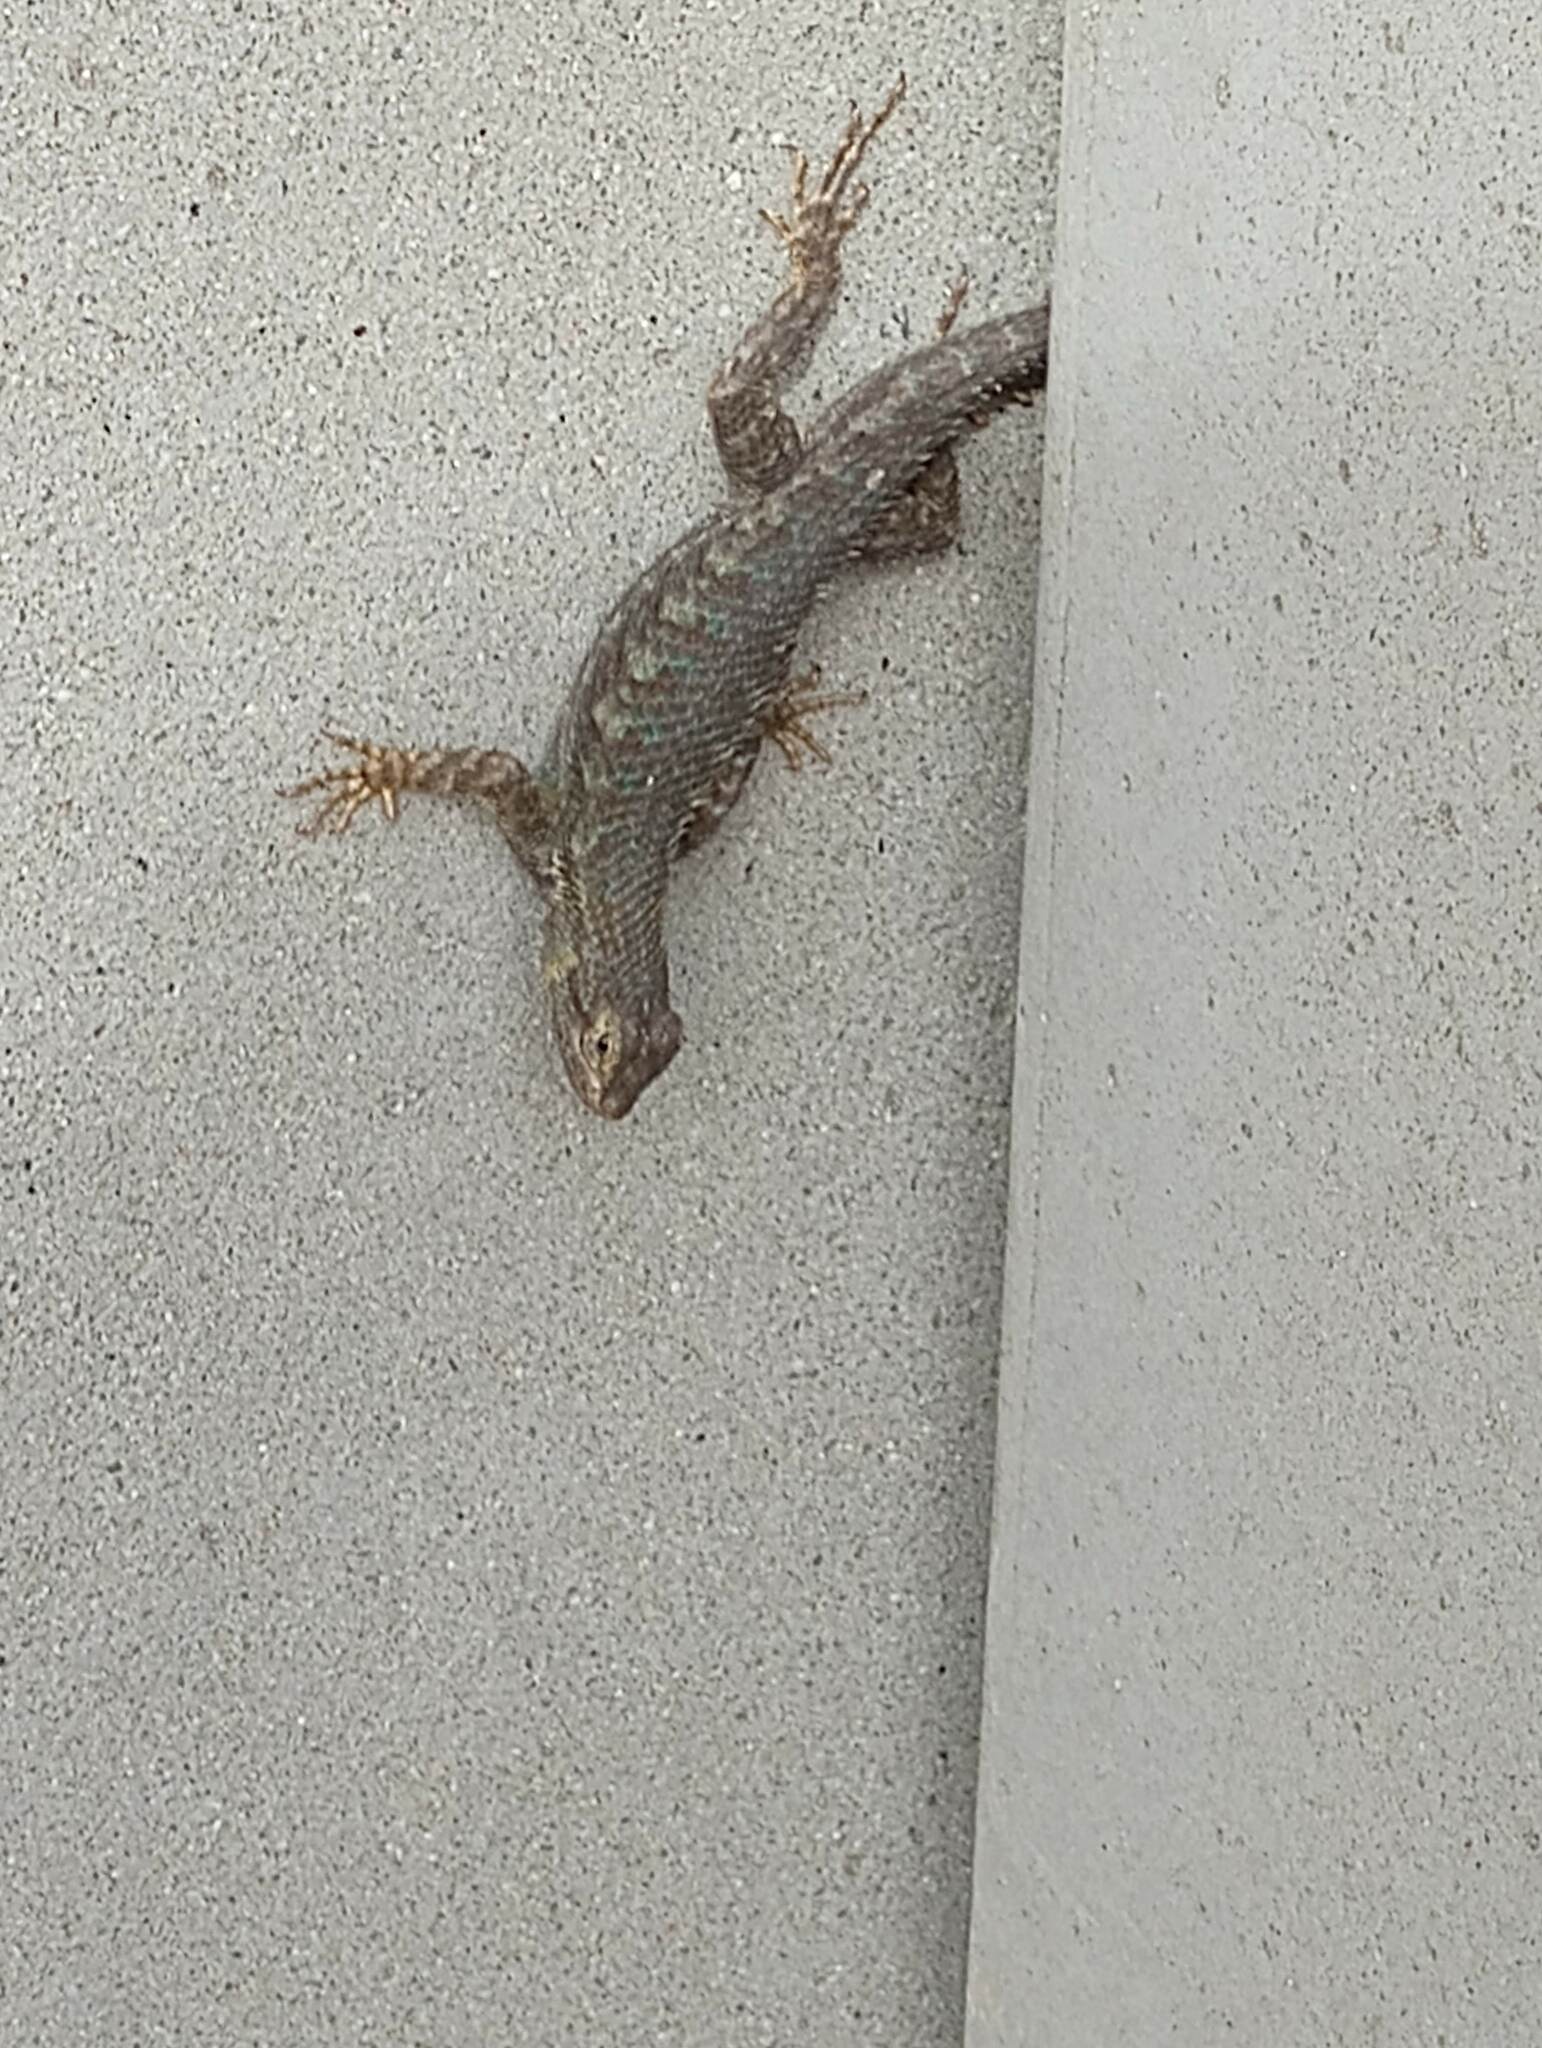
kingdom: Animalia
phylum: Chordata
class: Squamata
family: Phrynosomatidae
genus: Sceloporus
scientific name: Sceloporus occidentalis
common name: Western fence lizard
